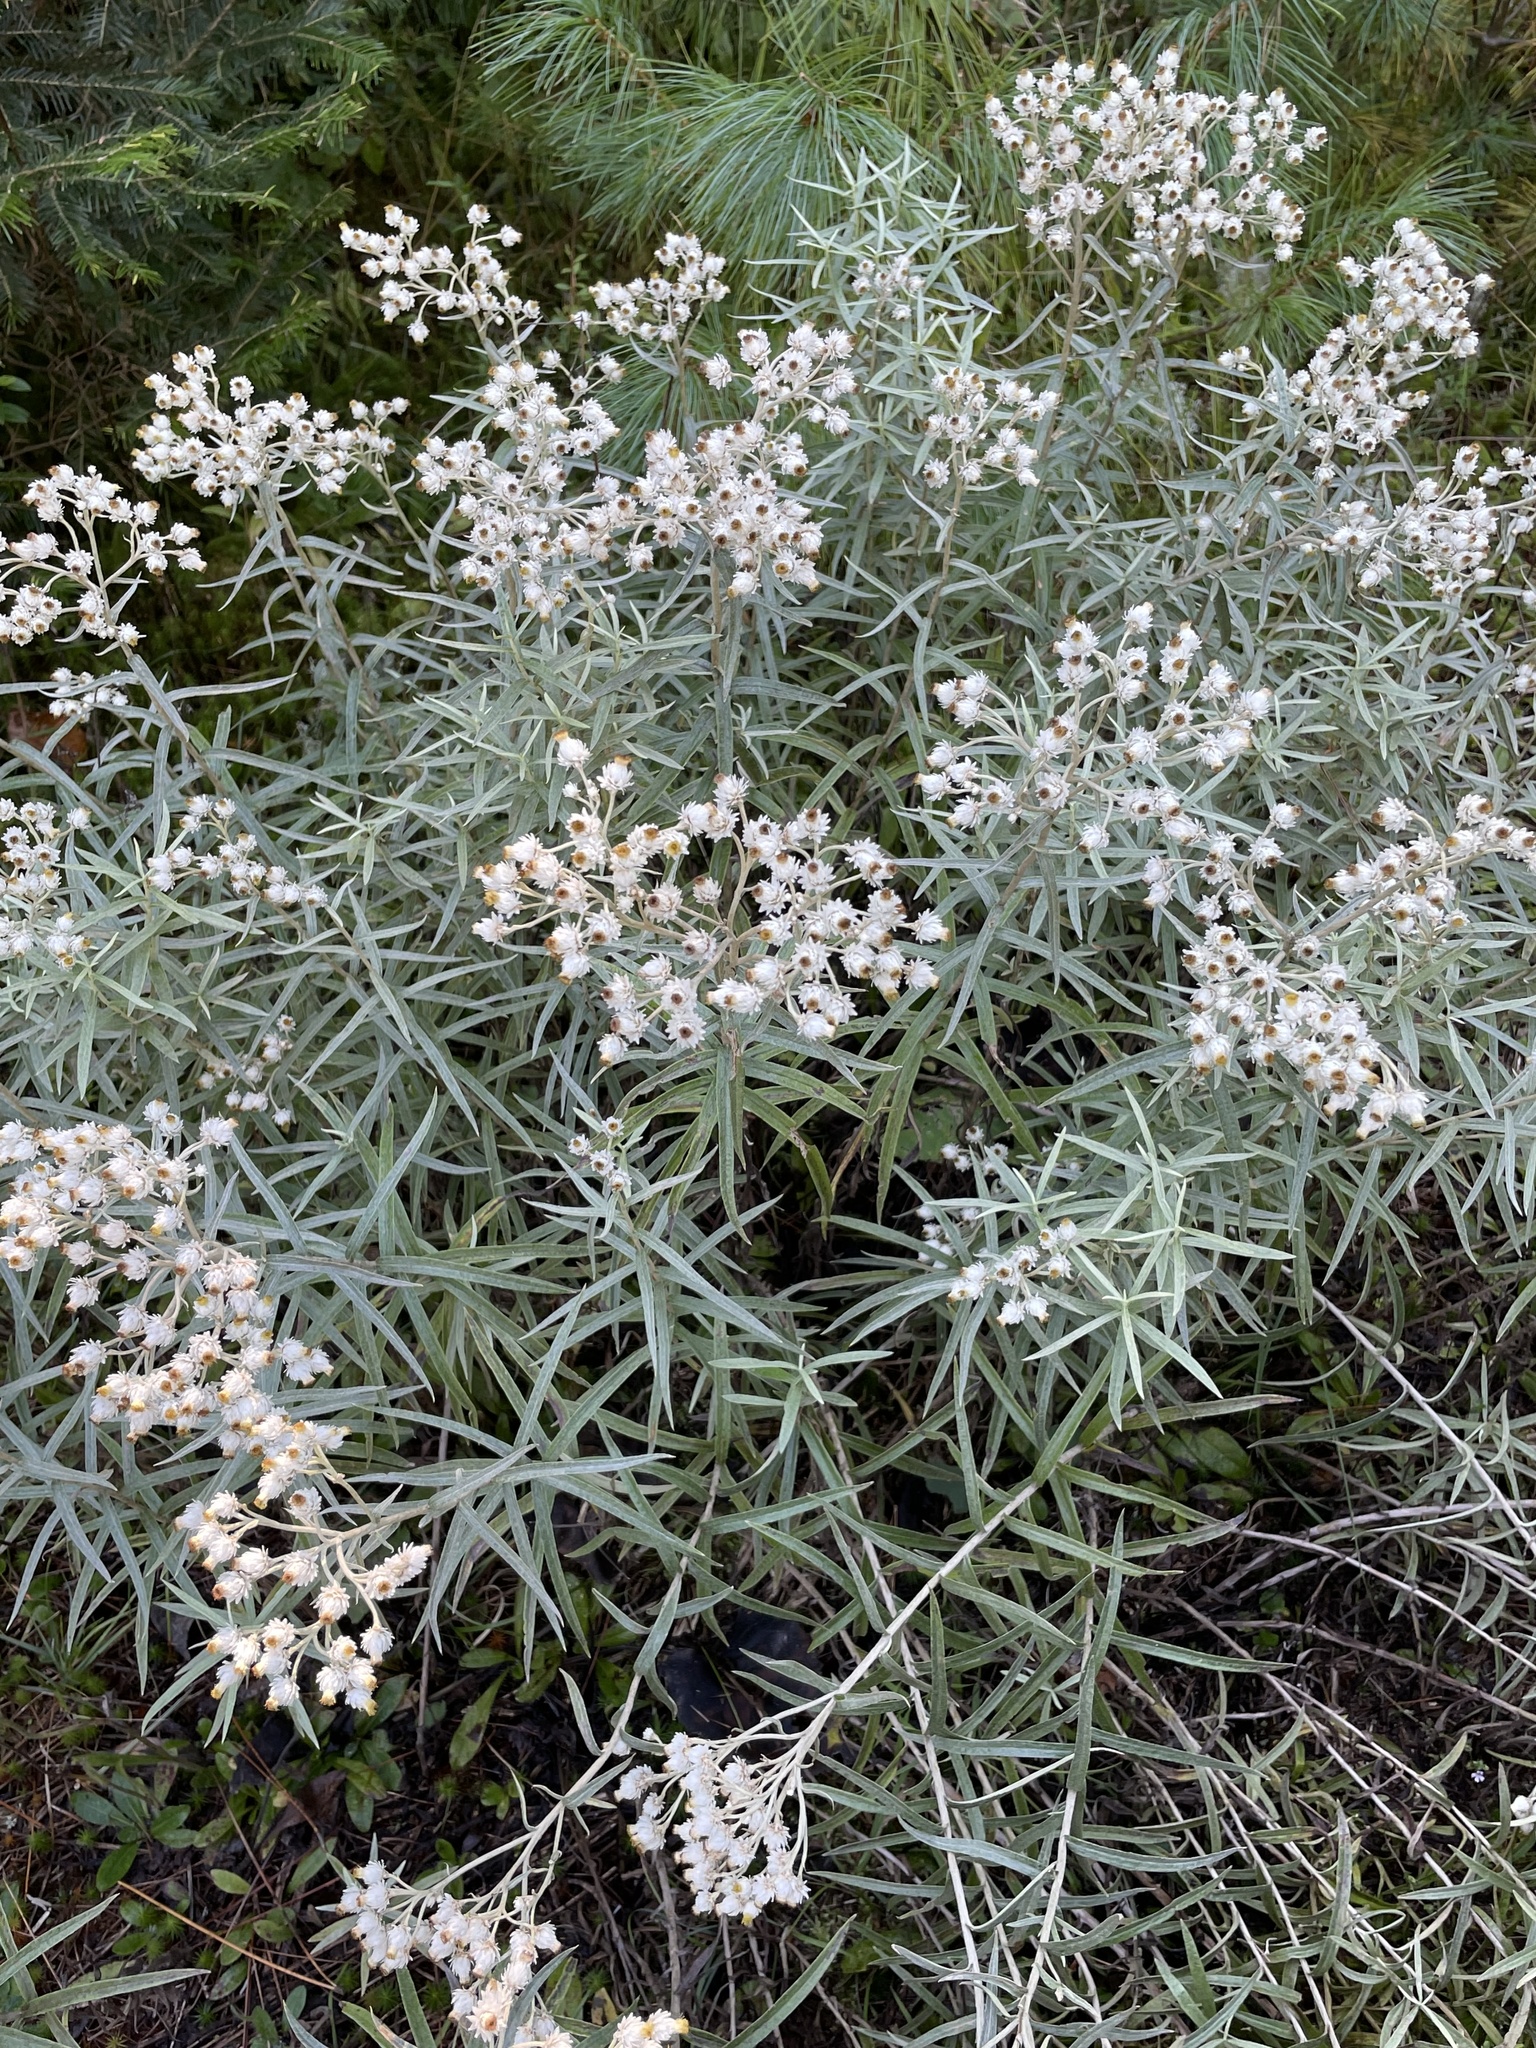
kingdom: Plantae
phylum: Tracheophyta
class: Magnoliopsida
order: Asterales
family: Asteraceae
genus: Anaphalis
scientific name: Anaphalis margaritacea
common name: Pearly everlasting
